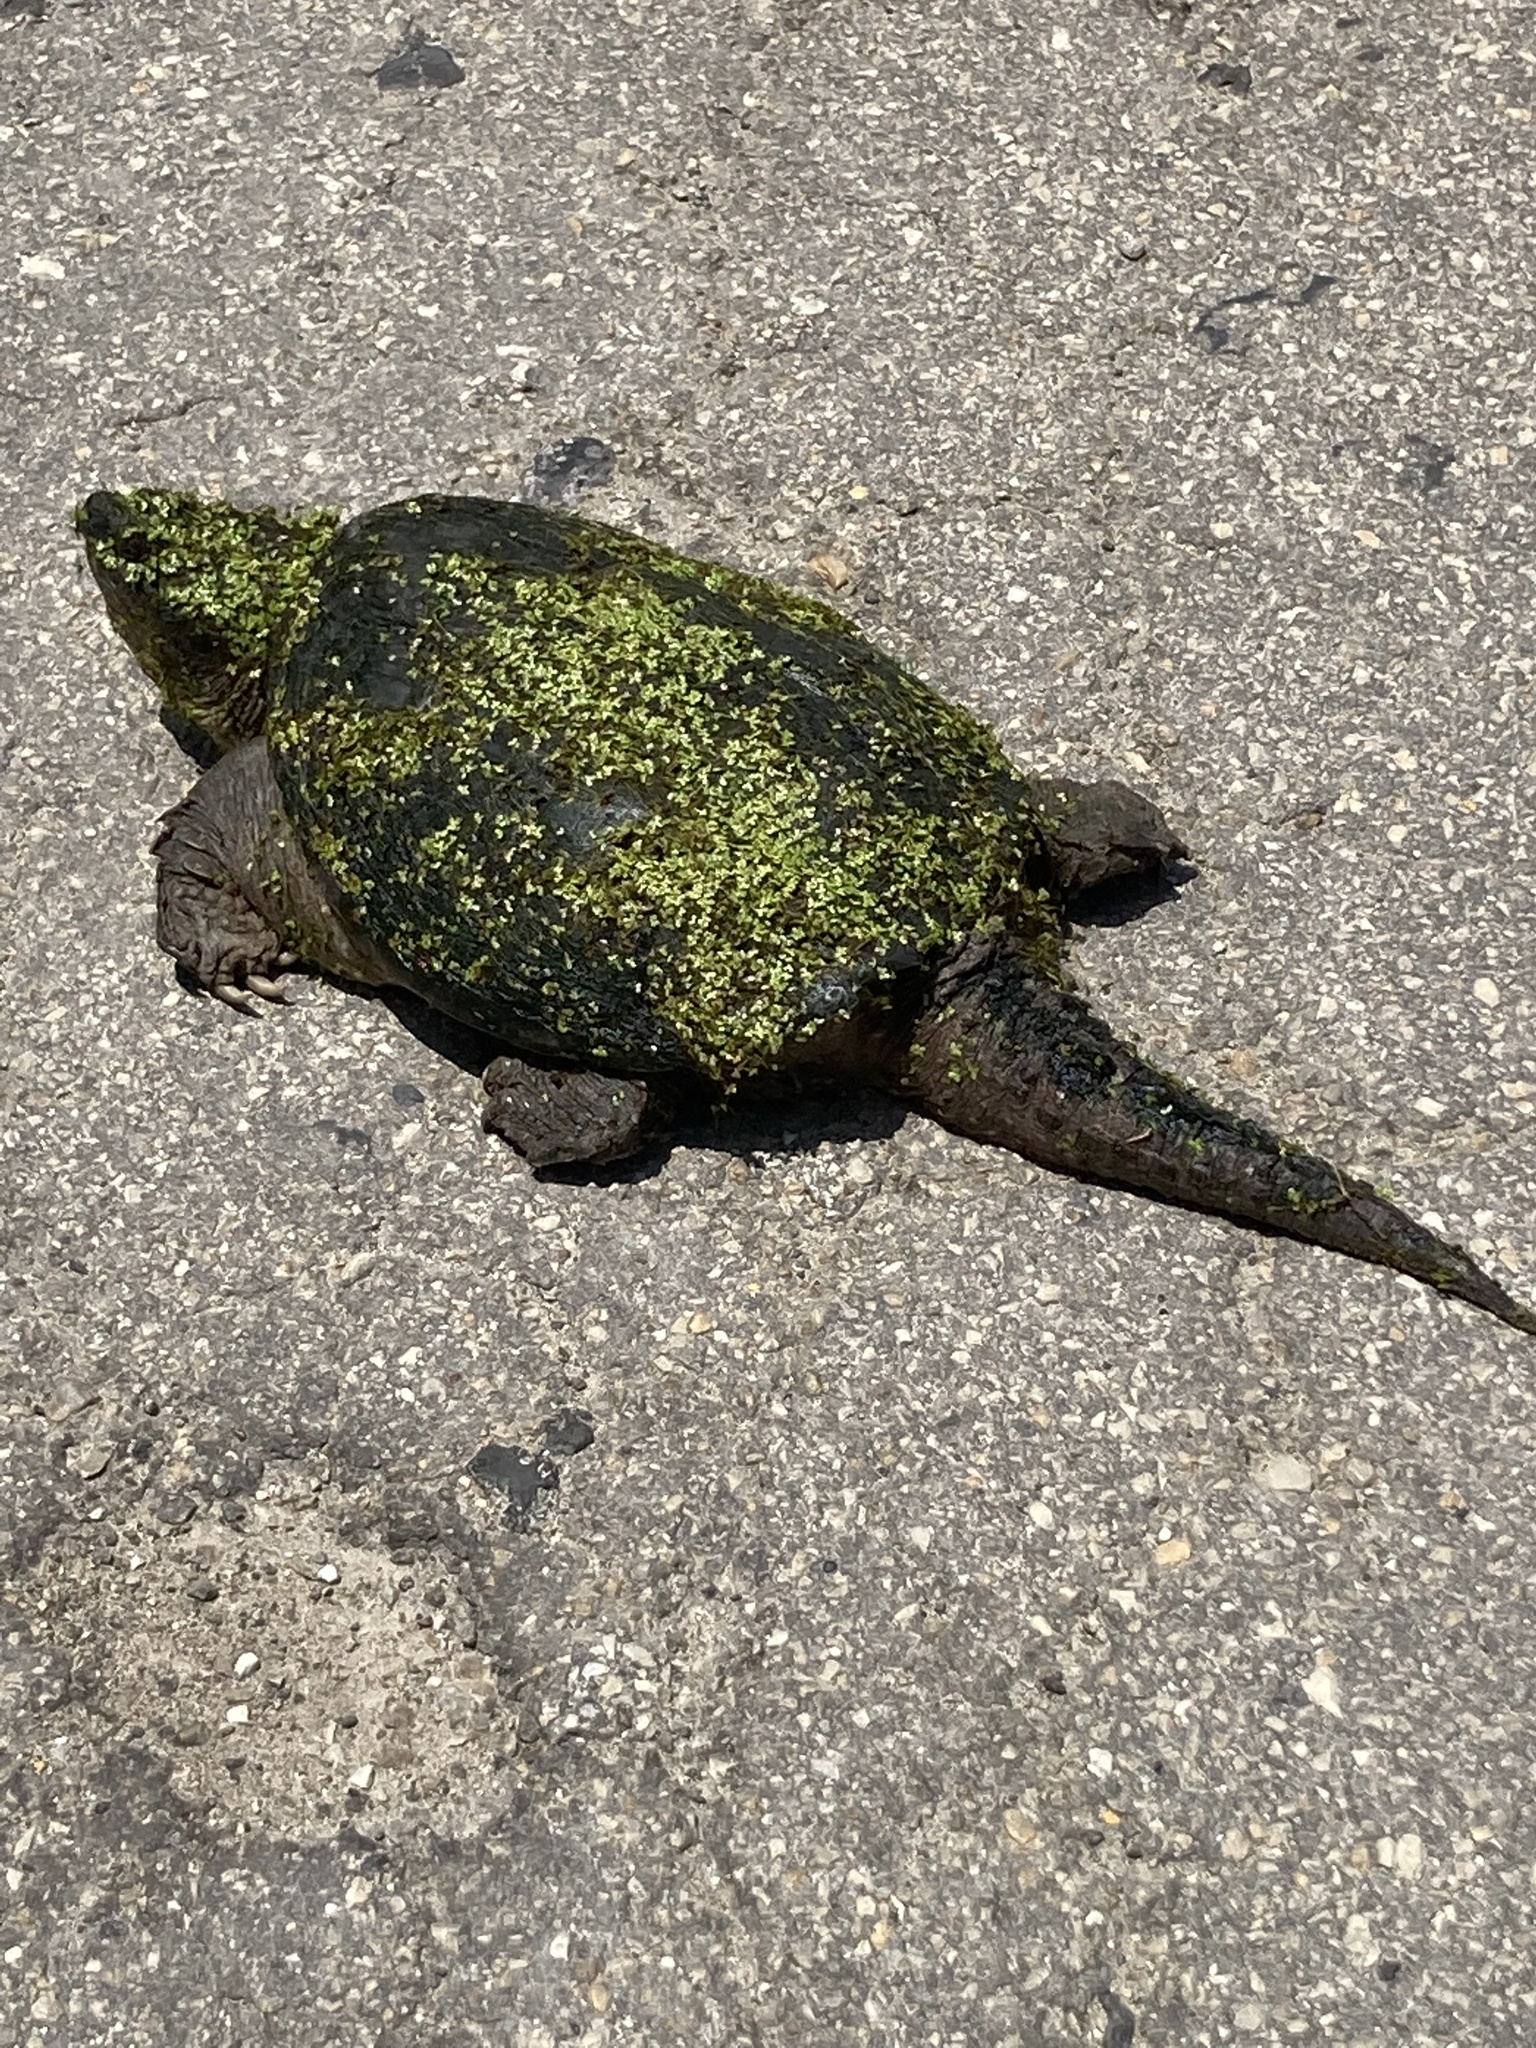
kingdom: Animalia
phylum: Chordata
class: Testudines
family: Chelydridae
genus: Chelydra
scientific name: Chelydra serpentina
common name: Common snapping turtle
